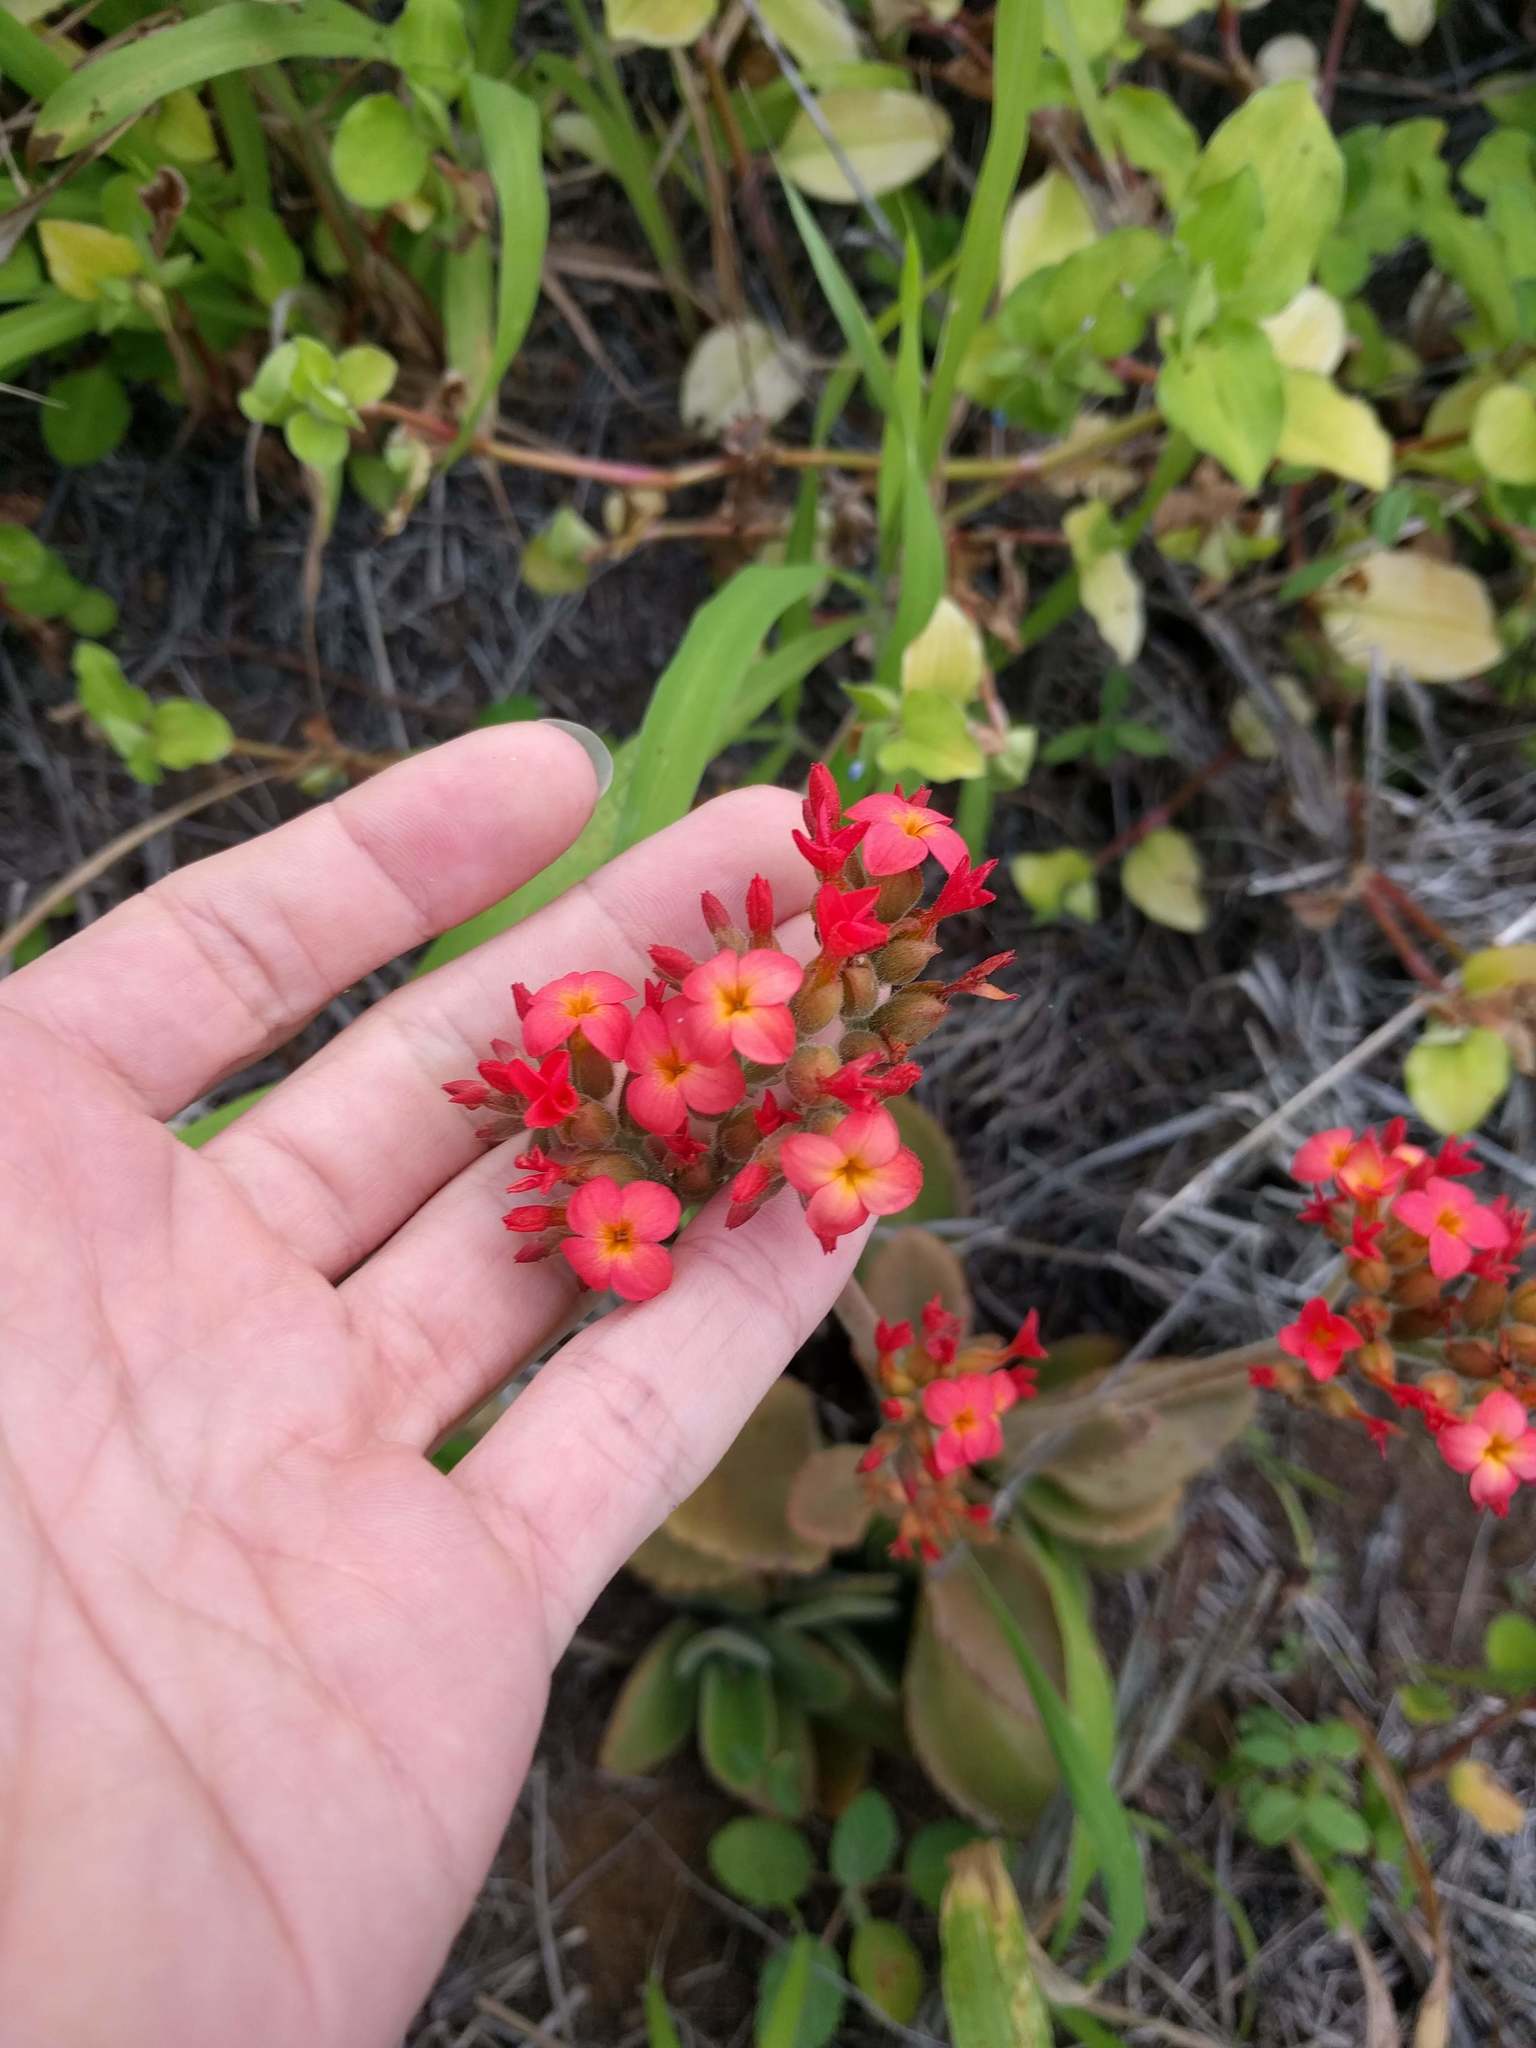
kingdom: Plantae
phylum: Tracheophyta
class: Magnoliopsida
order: Saxifragales
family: Crassulaceae
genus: Kalanchoe
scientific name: Kalanchoe lateritia
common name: Kalanchoe
